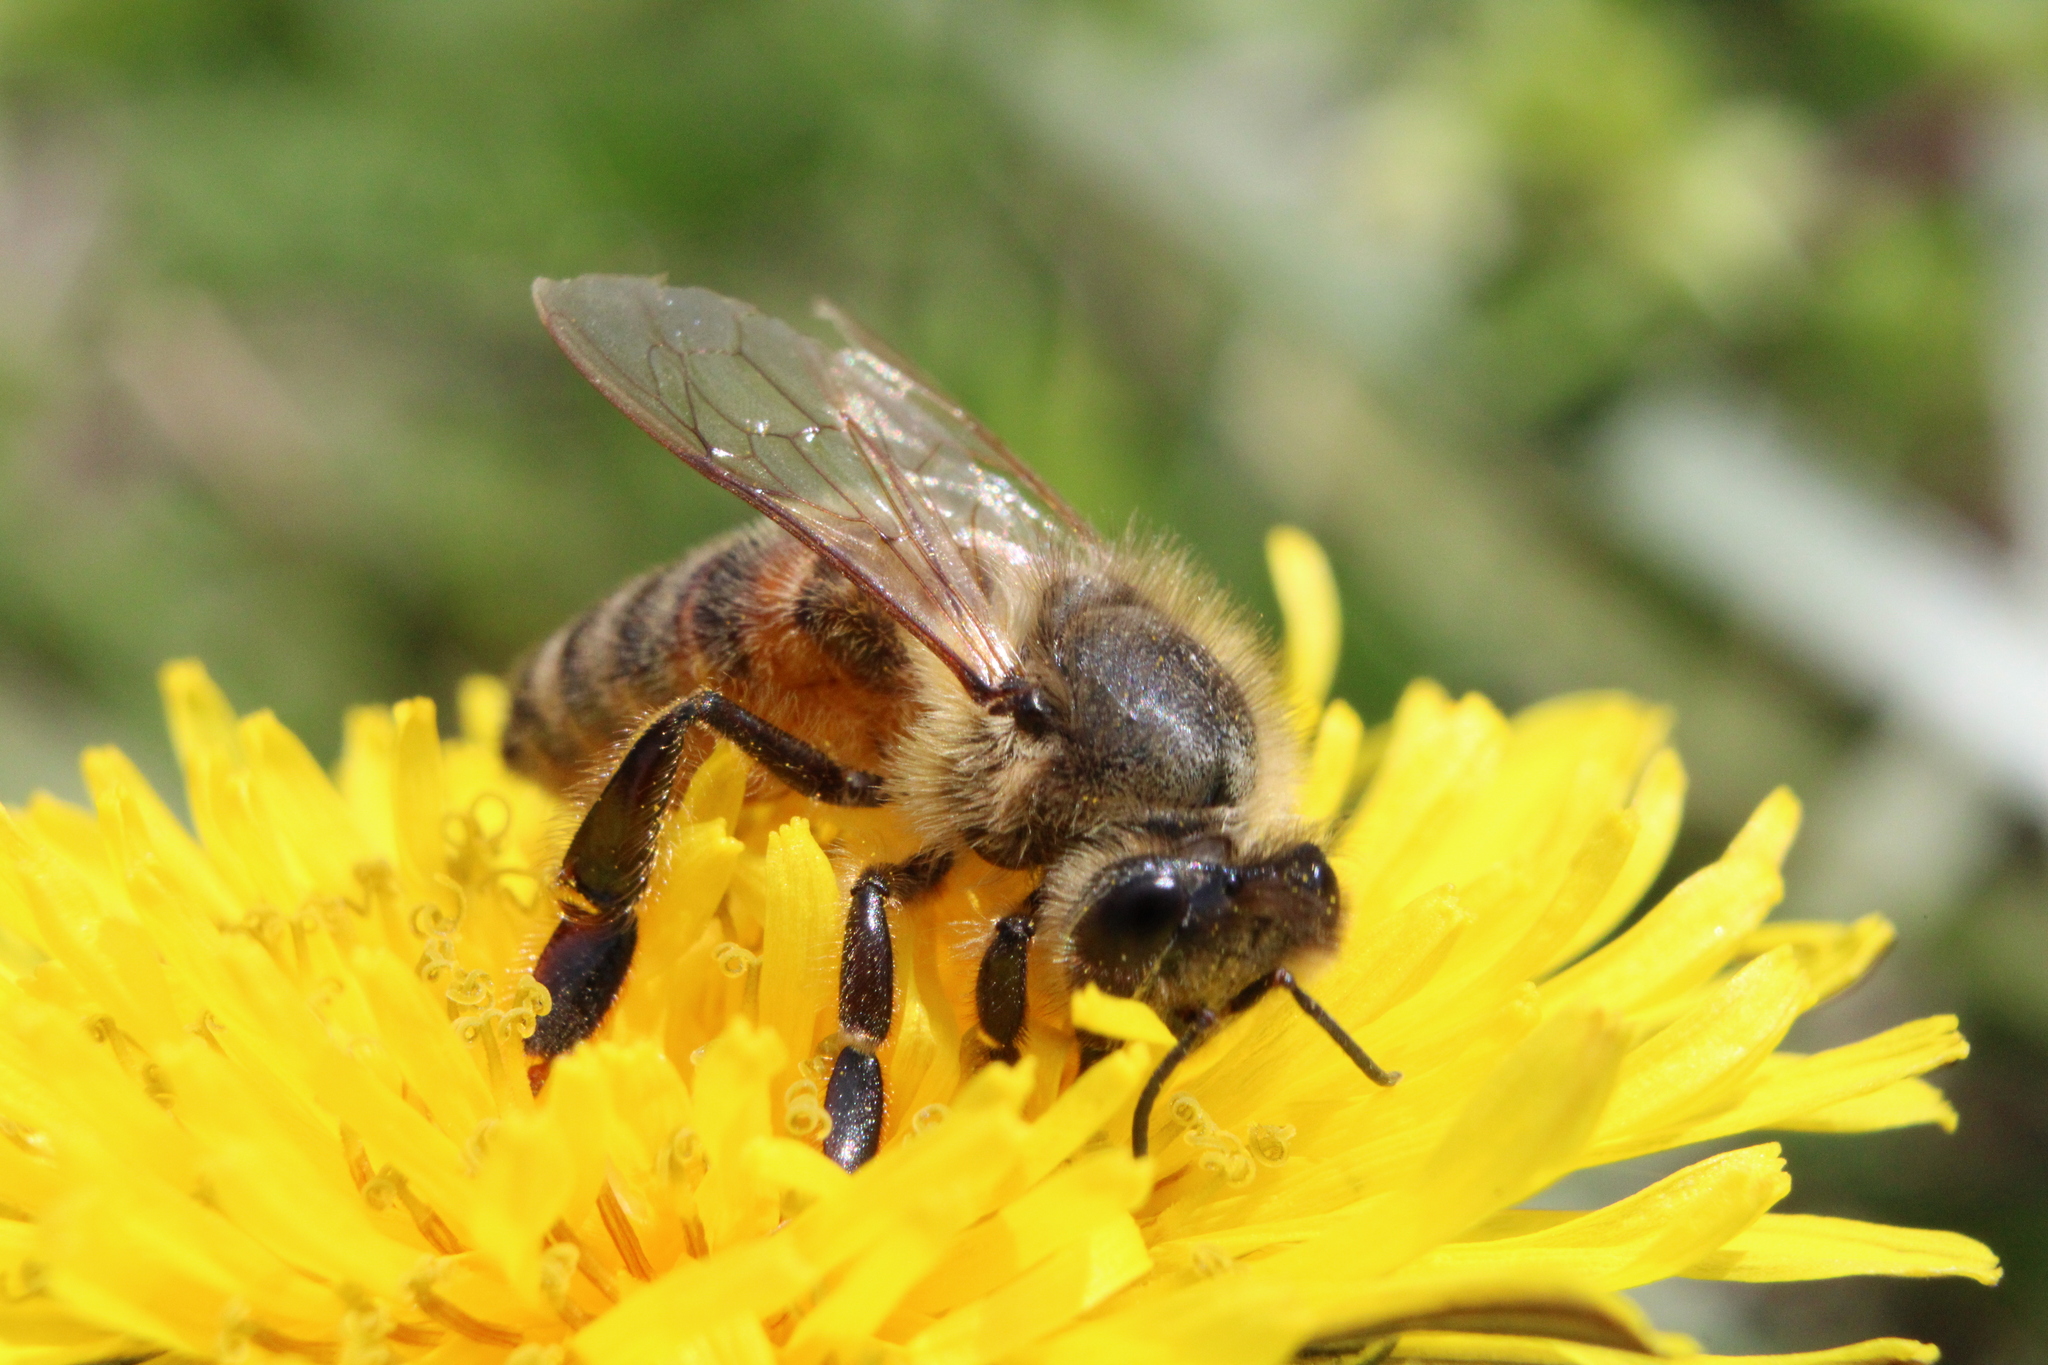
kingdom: Animalia
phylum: Arthropoda
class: Insecta
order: Hymenoptera
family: Apidae
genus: Apis
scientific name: Apis mellifera
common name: Honey bee
